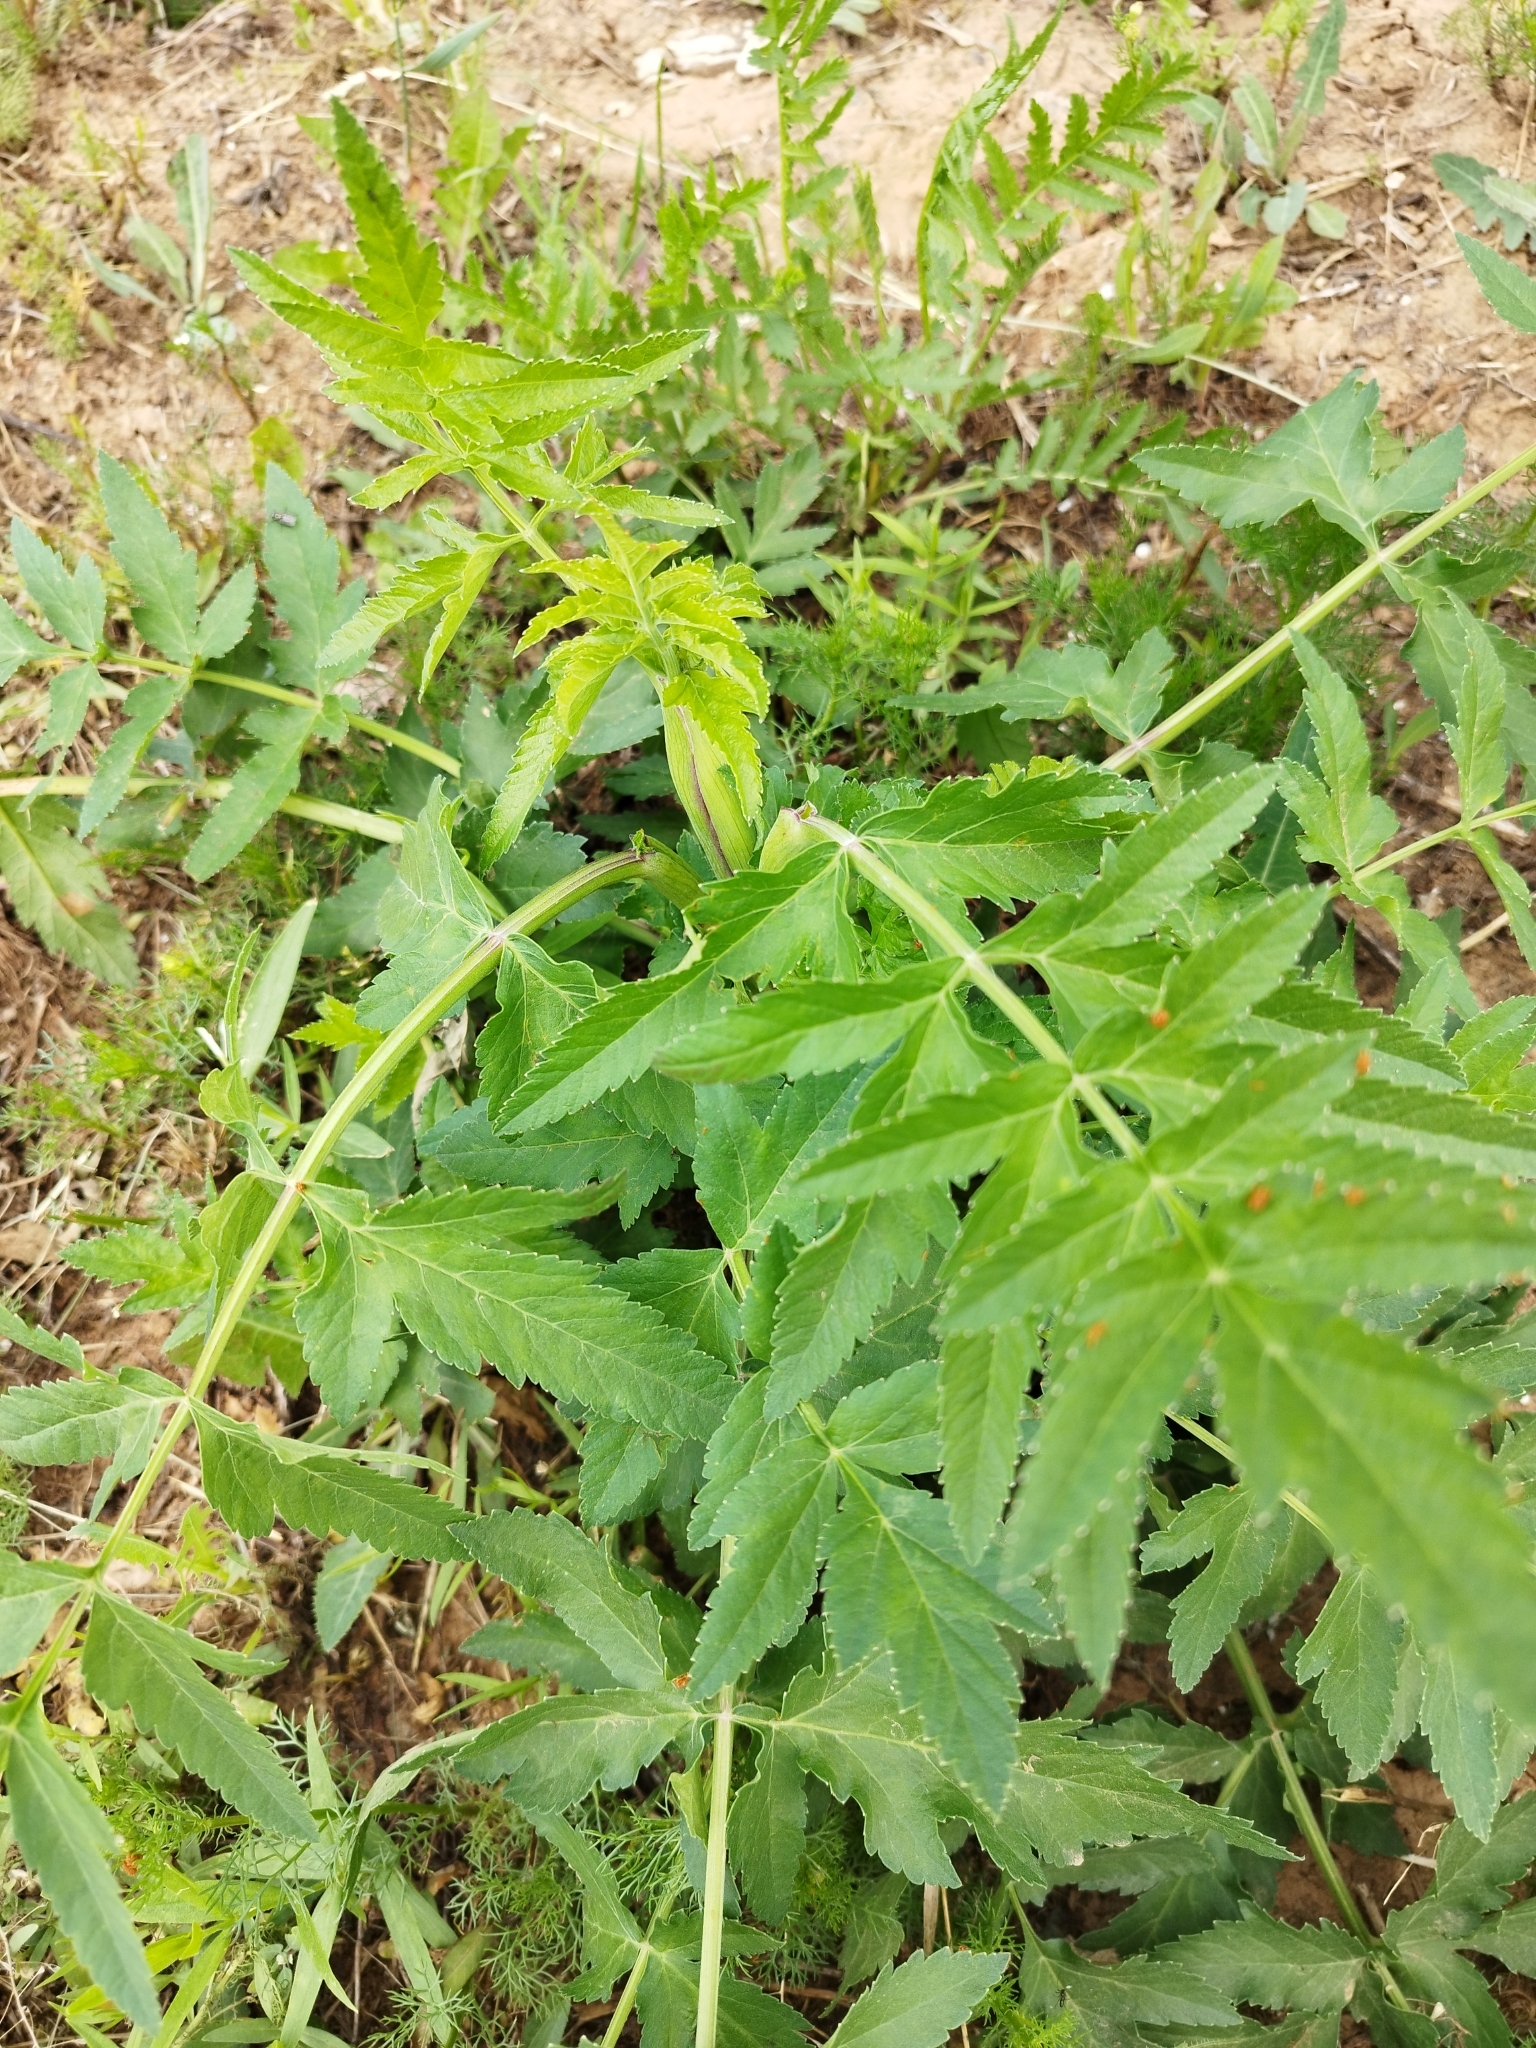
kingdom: Plantae
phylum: Tracheophyta
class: Magnoliopsida
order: Apiales
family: Apiaceae
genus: Pastinaca
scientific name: Pastinaca sativa
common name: Wild parsnip
